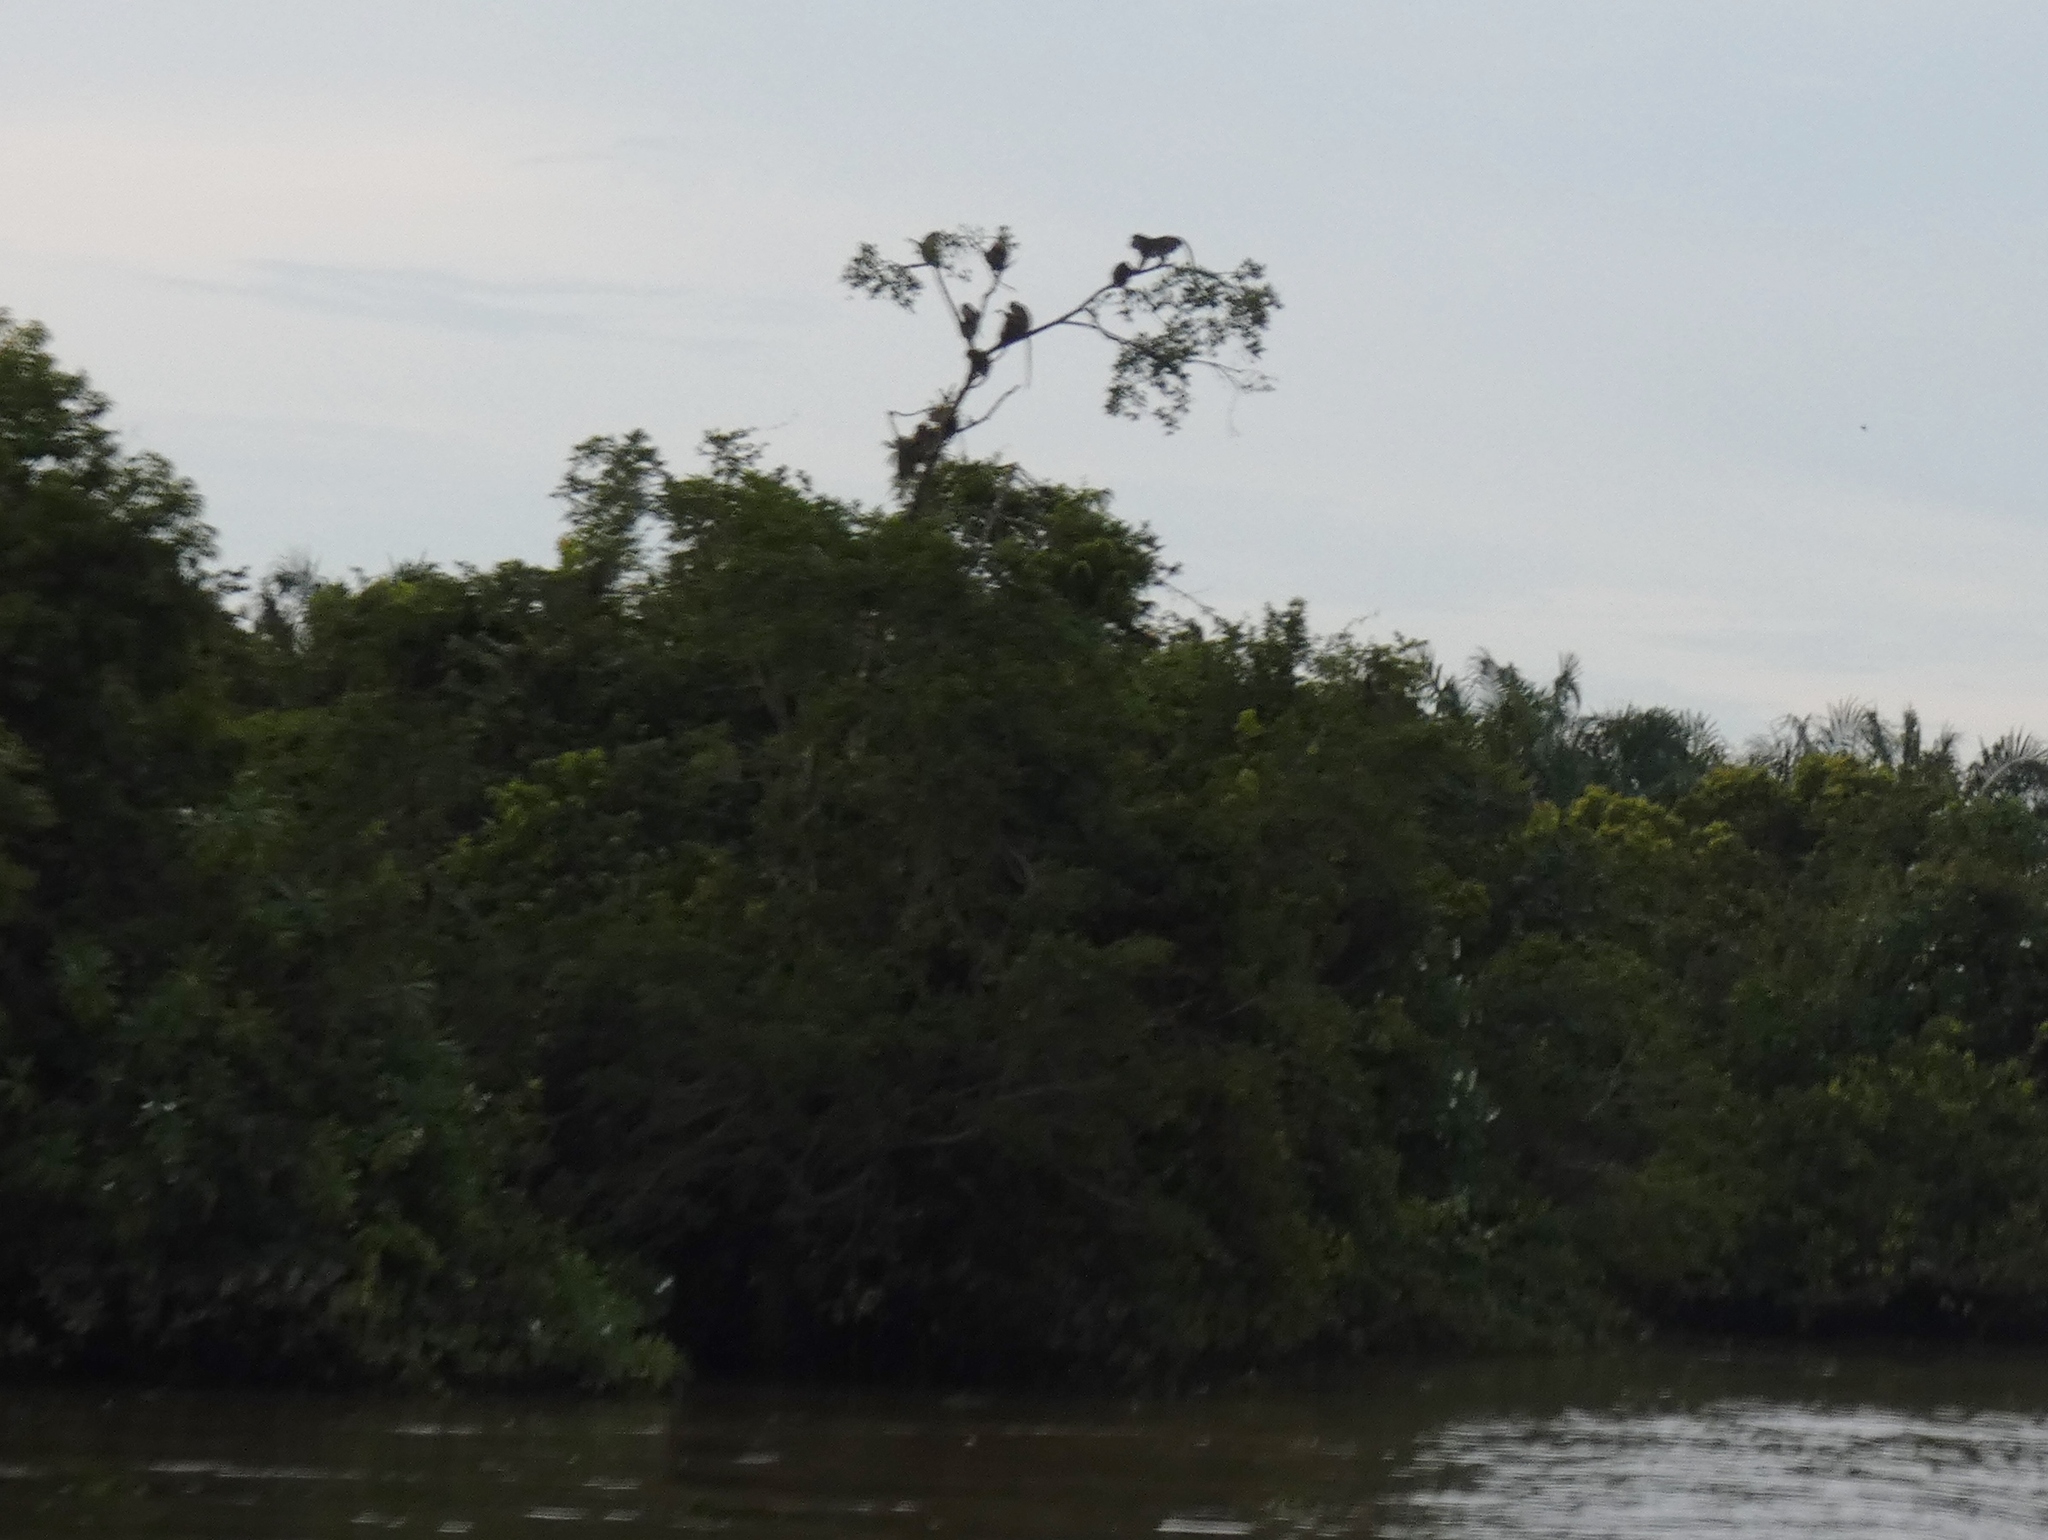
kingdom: Animalia
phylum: Chordata
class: Mammalia
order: Primates
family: Cercopithecidae
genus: Macaca
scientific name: Macaca fascicularis
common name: Crab-eating macaque
